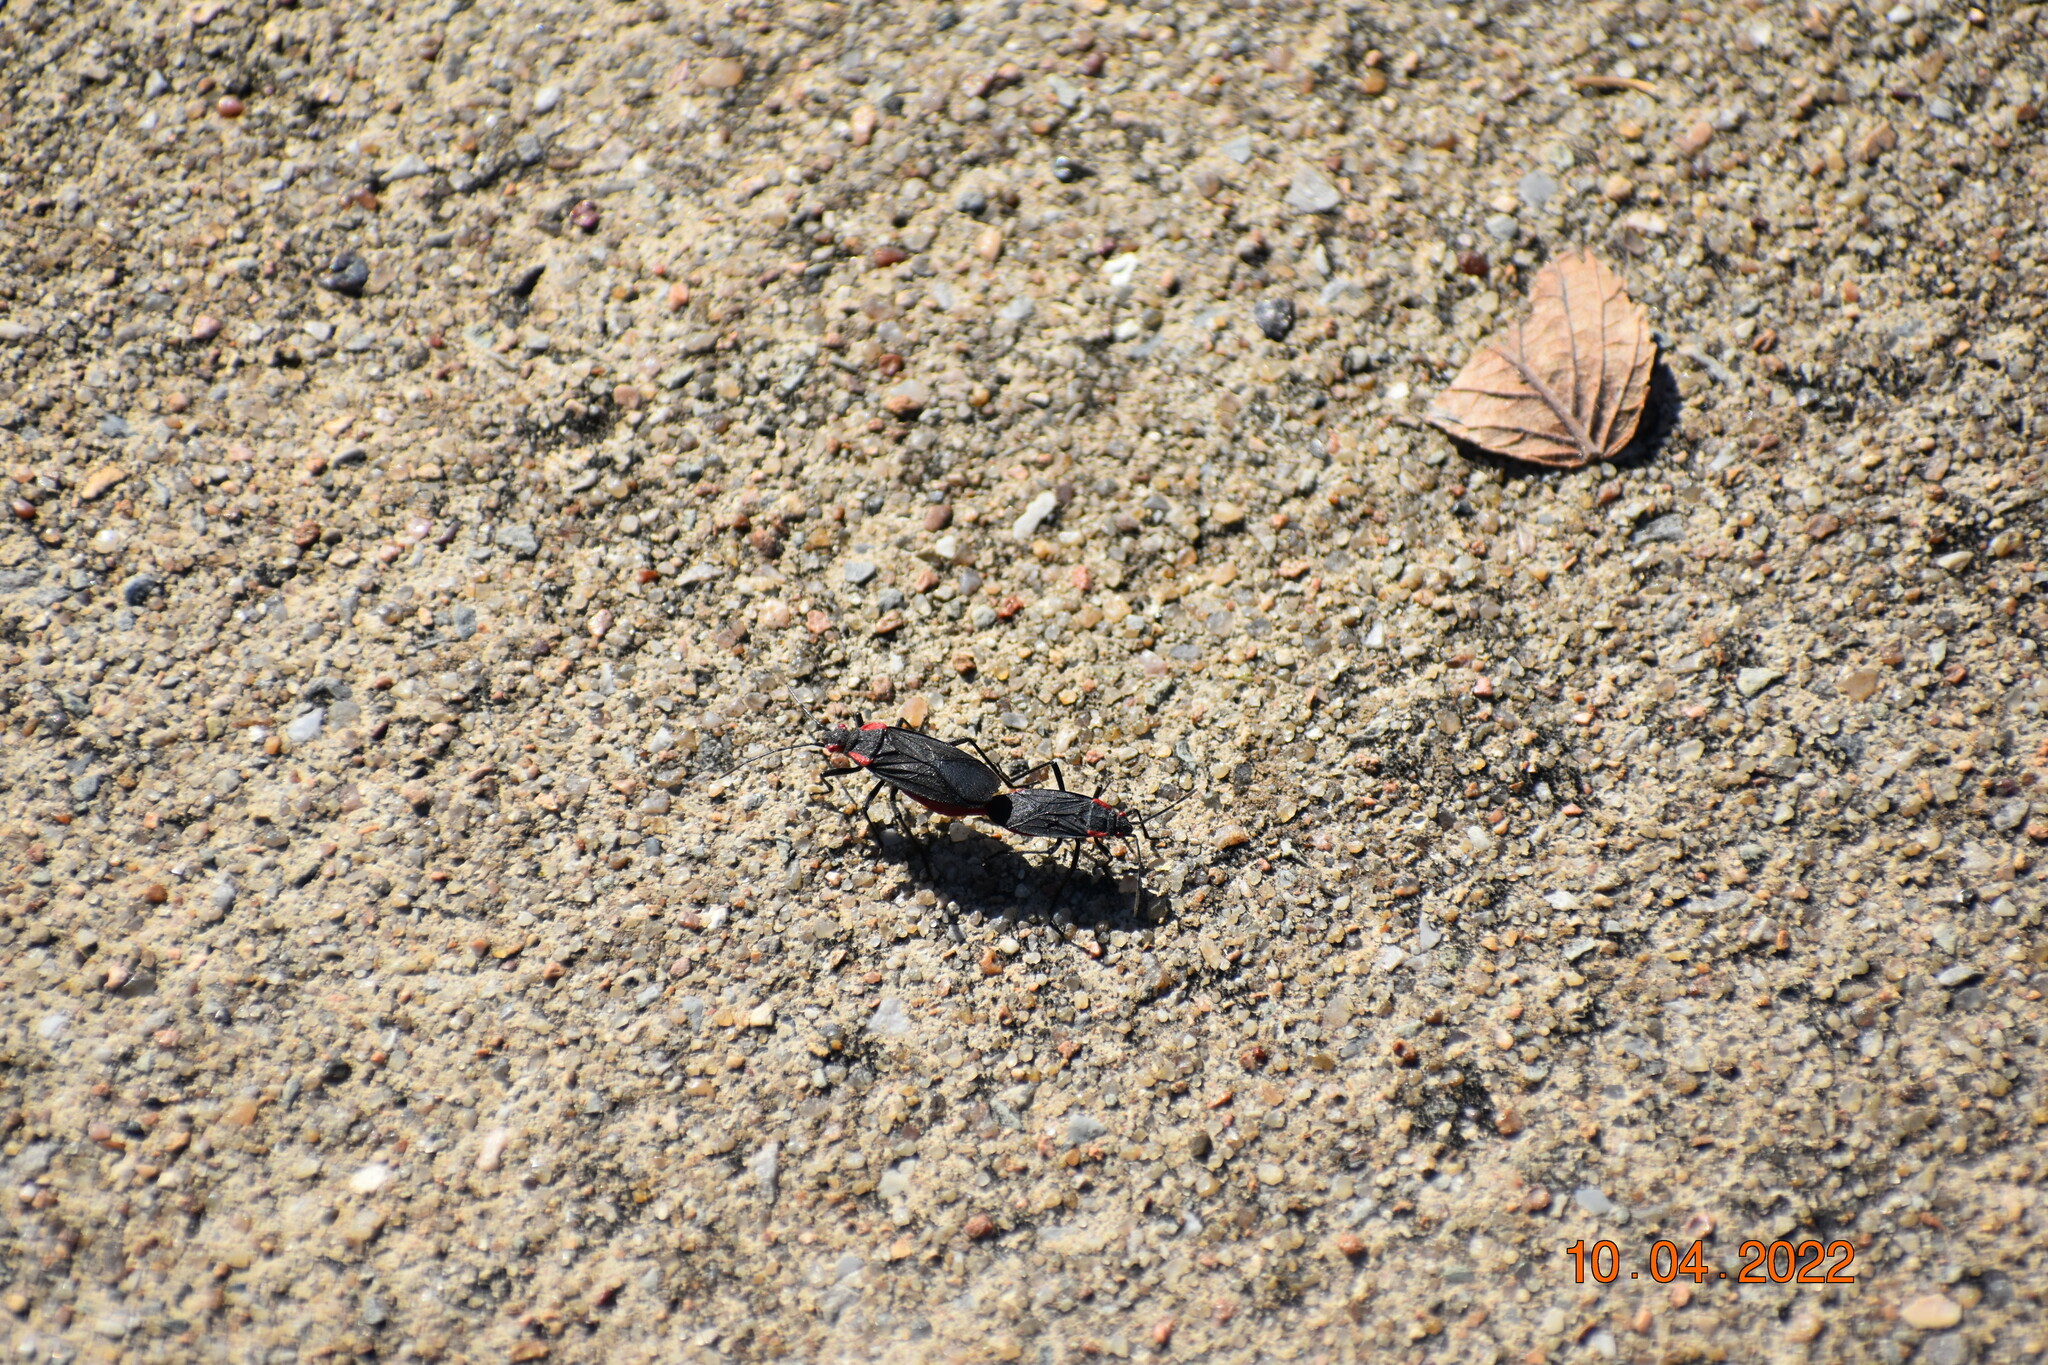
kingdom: Animalia
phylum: Arthropoda
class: Insecta
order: Hemiptera
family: Rhopalidae
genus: Jadera
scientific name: Jadera haematoloma
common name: Red-shouldered bug
